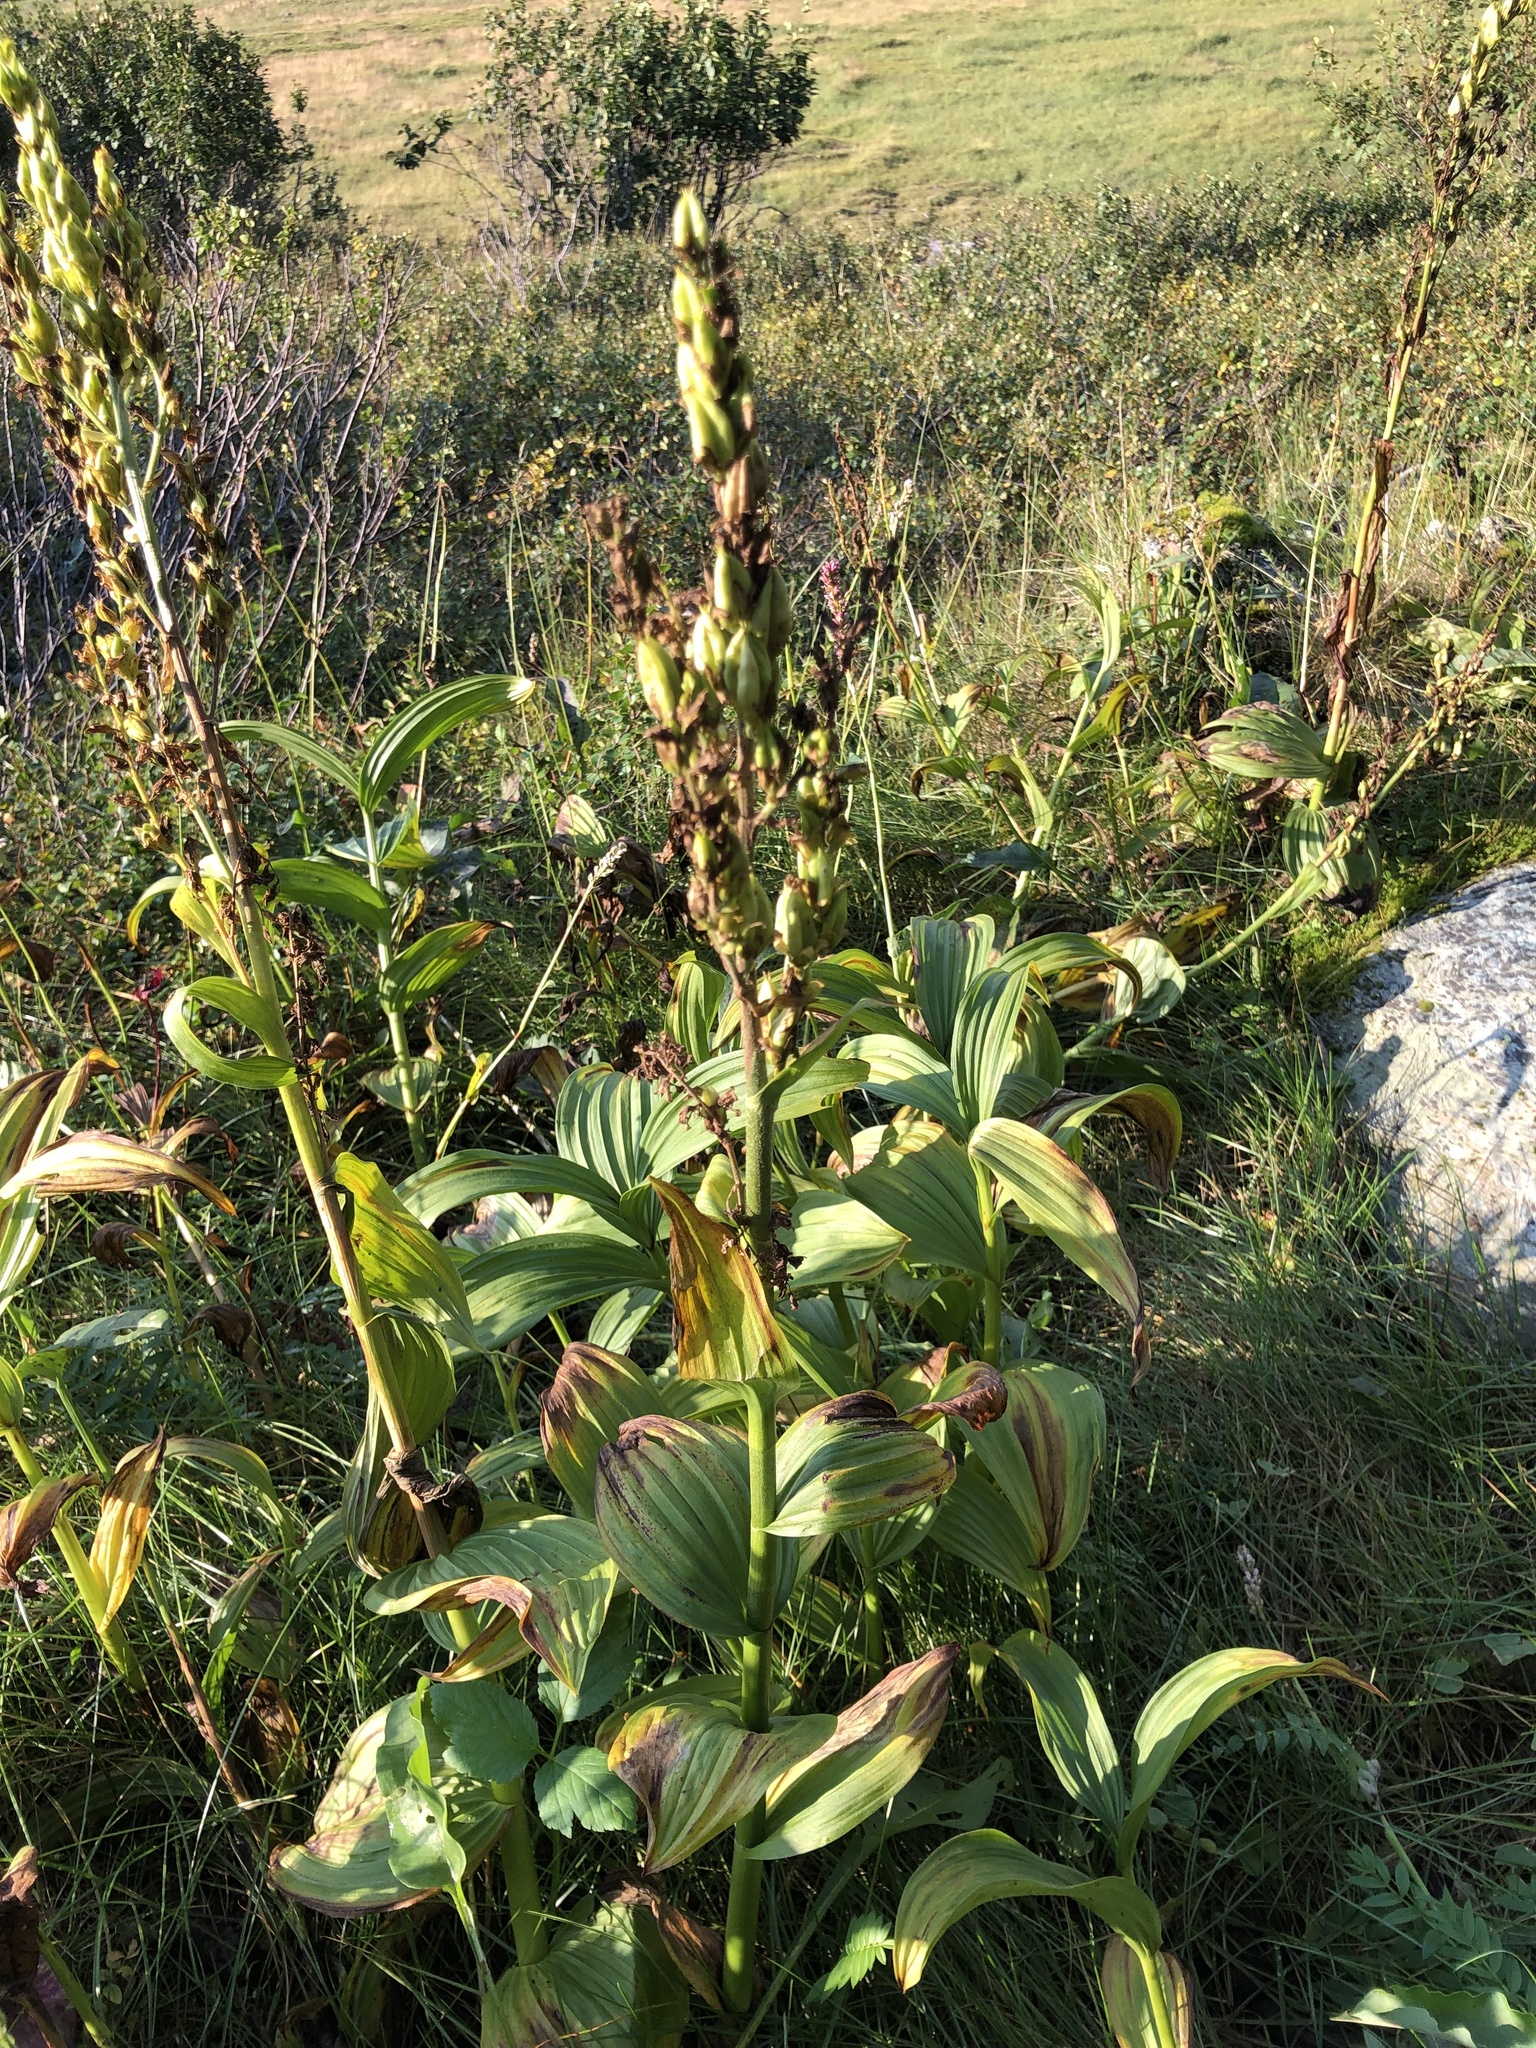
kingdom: Plantae
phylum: Tracheophyta
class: Liliopsida
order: Liliales
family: Melanthiaceae
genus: Veratrum
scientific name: Veratrum lobelianum
